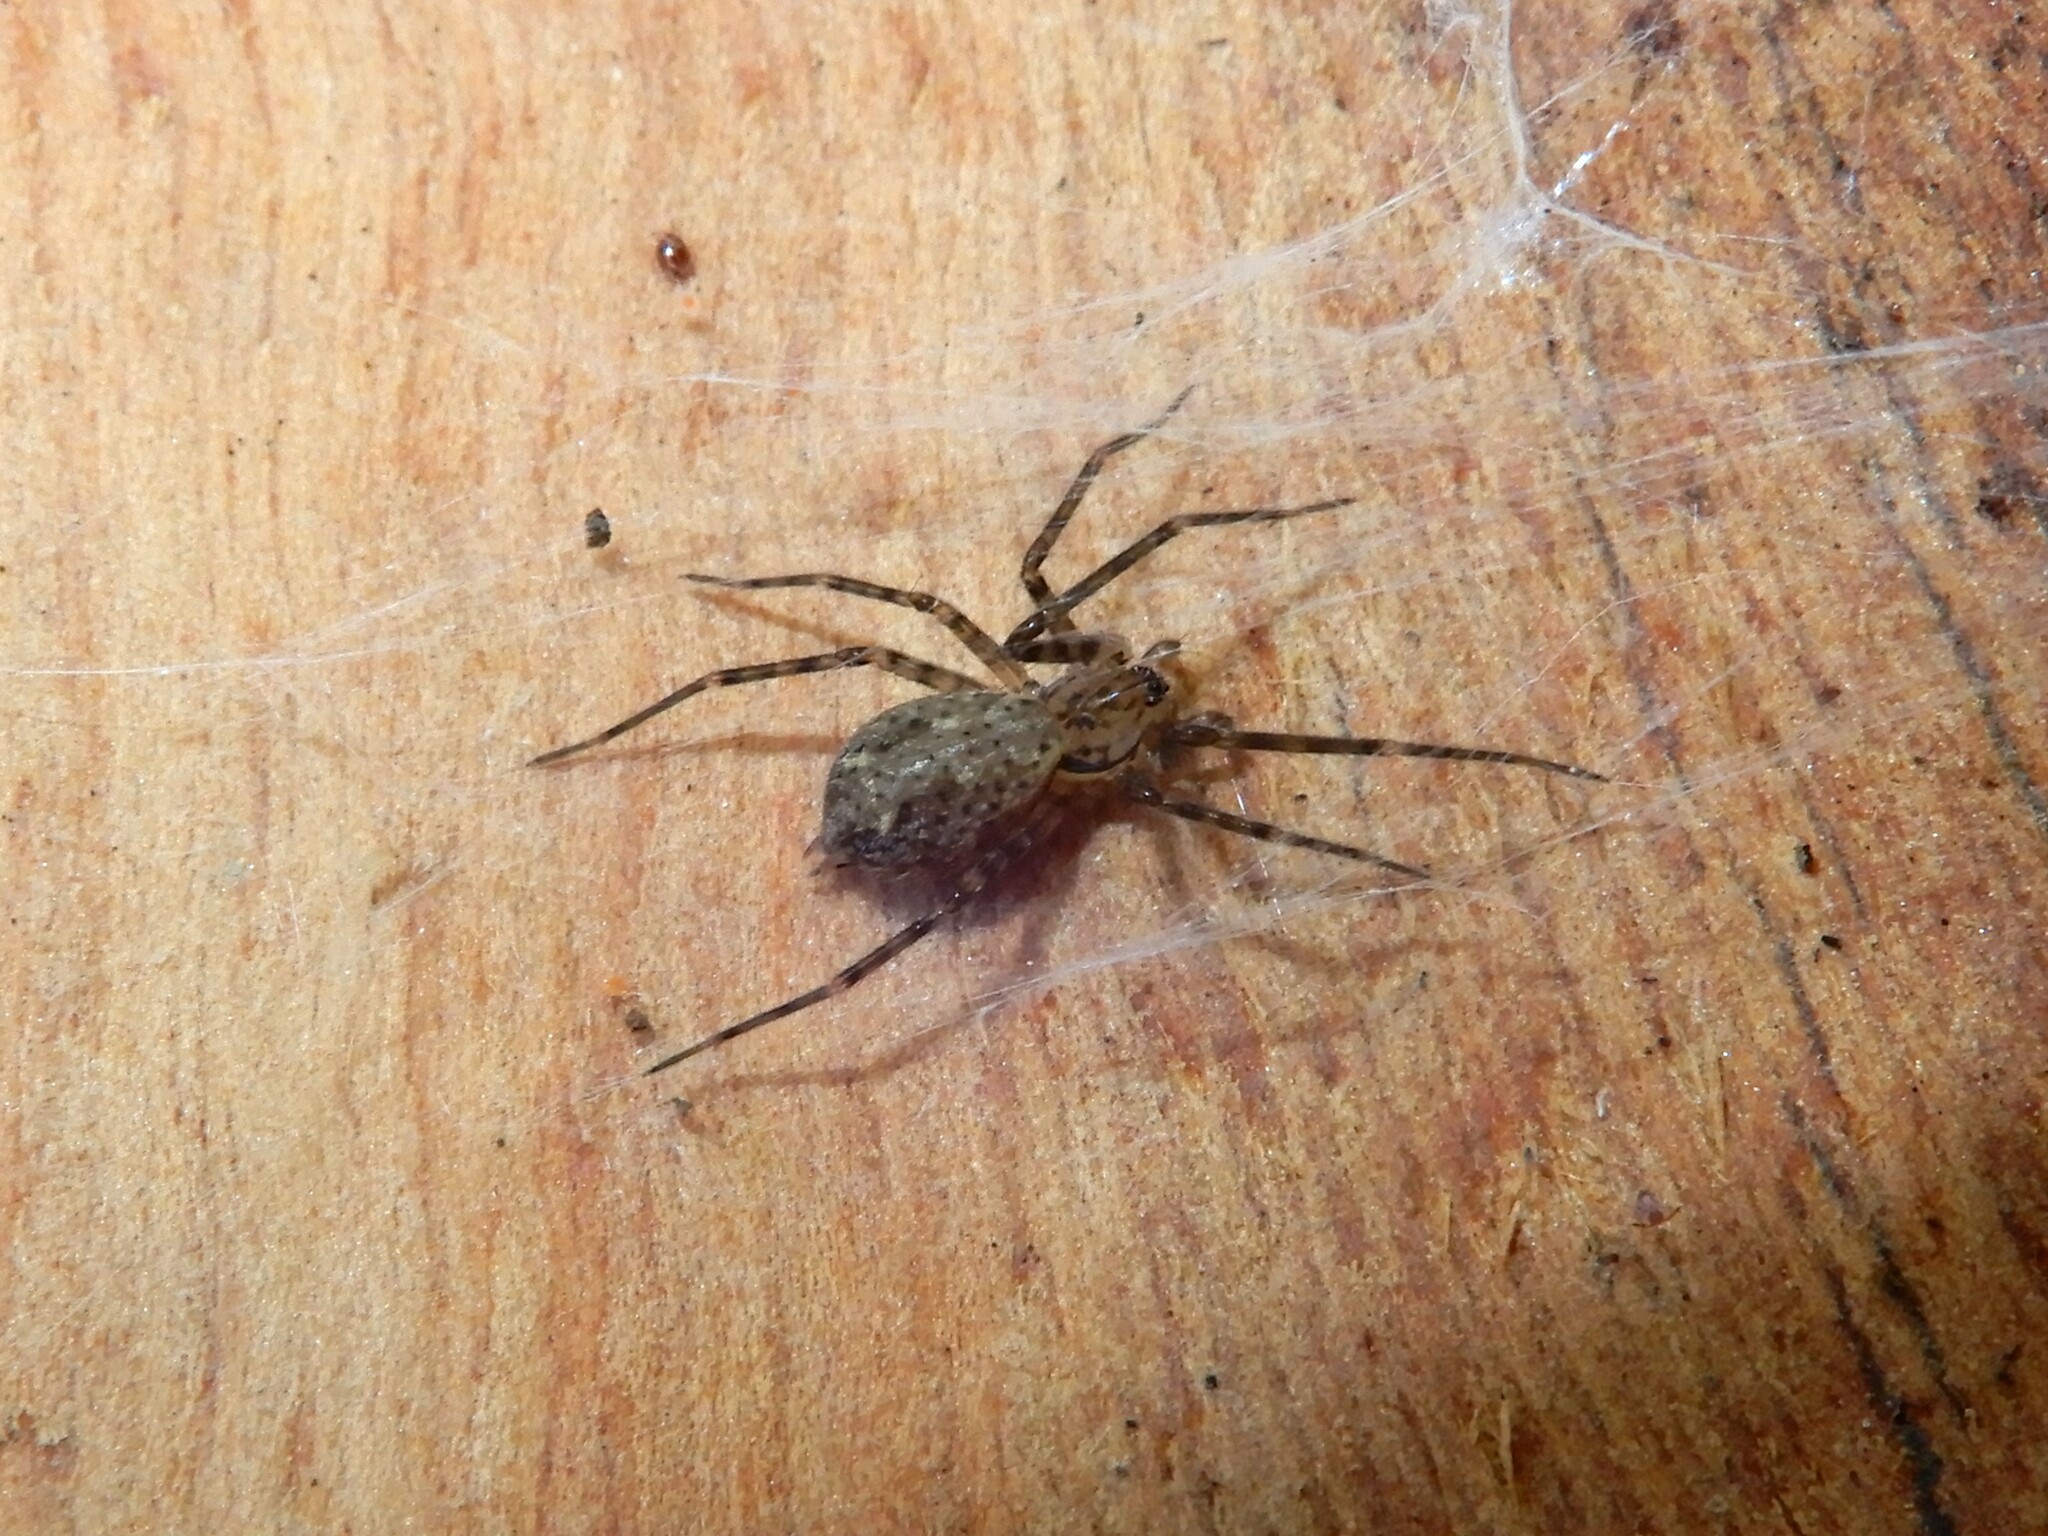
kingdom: Animalia
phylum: Arthropoda
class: Arachnida
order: Araneae
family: Stiphidiidae
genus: Stiphidion
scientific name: Stiphidion facetum
